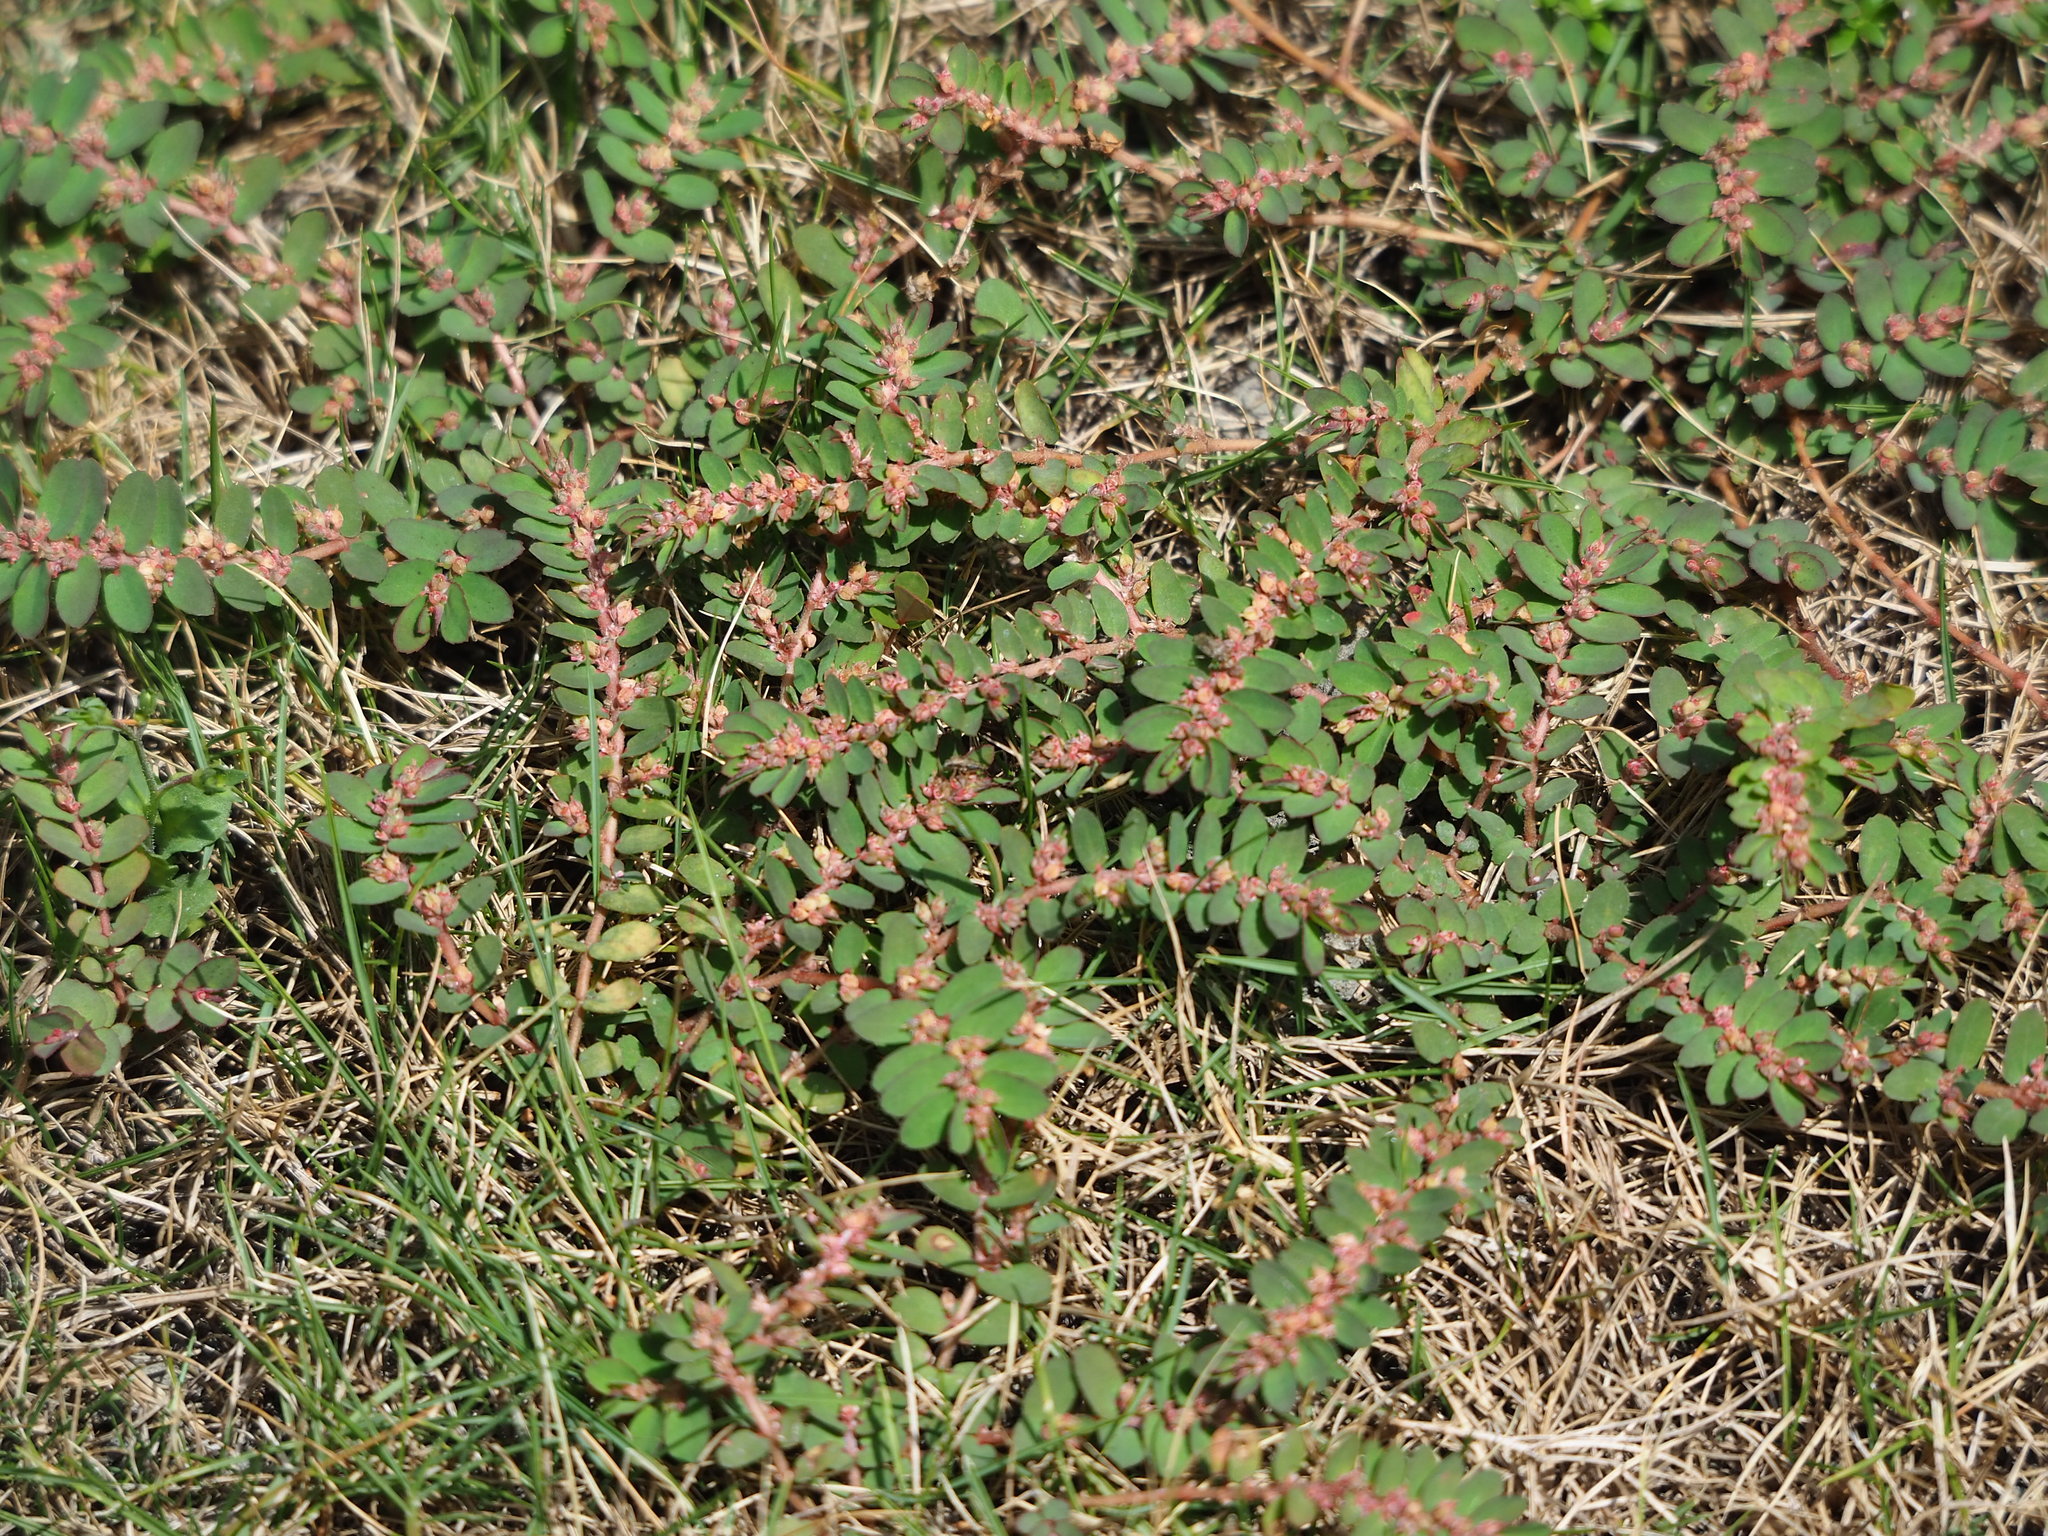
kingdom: Plantae
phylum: Tracheophyta
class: Magnoliopsida
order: Malpighiales
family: Euphorbiaceae
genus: Euphorbia
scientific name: Euphorbia thymifolia
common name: Gulf sandmat
